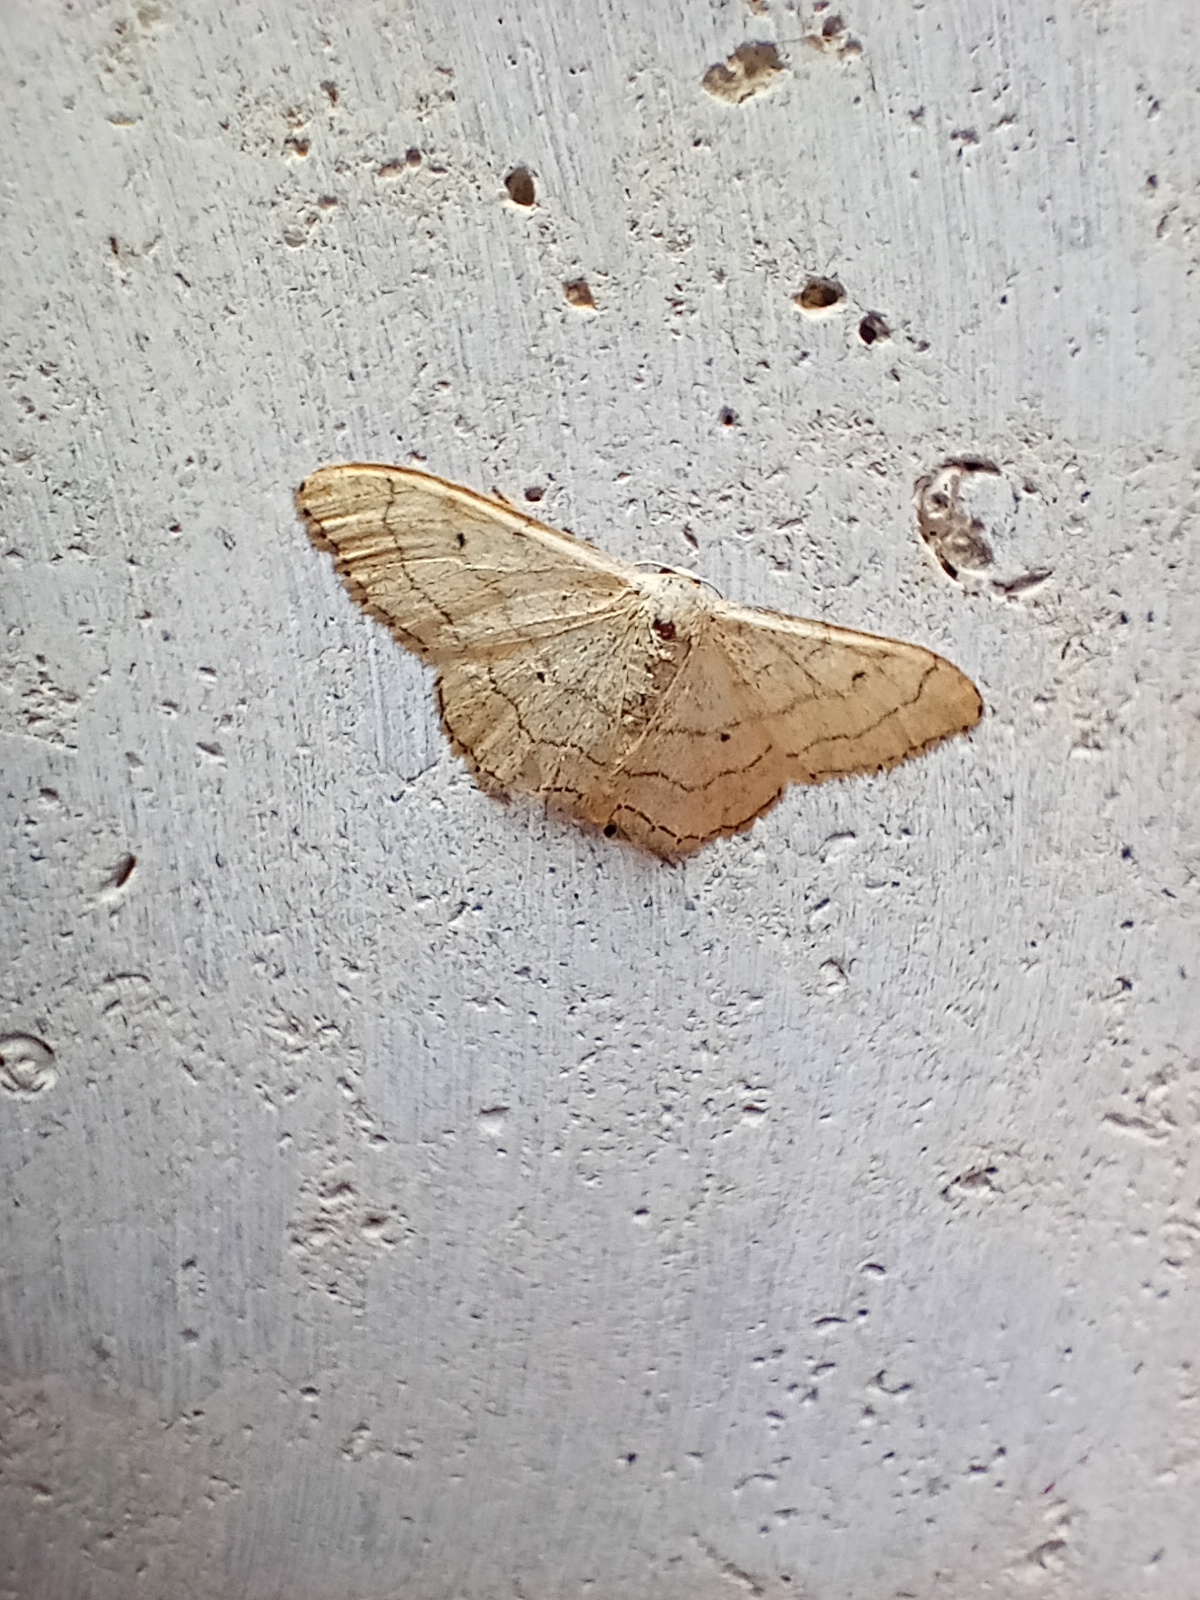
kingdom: Animalia
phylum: Arthropoda
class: Insecta
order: Lepidoptera
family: Geometridae
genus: Idaea
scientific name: Idaea aversata
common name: Riband wave
